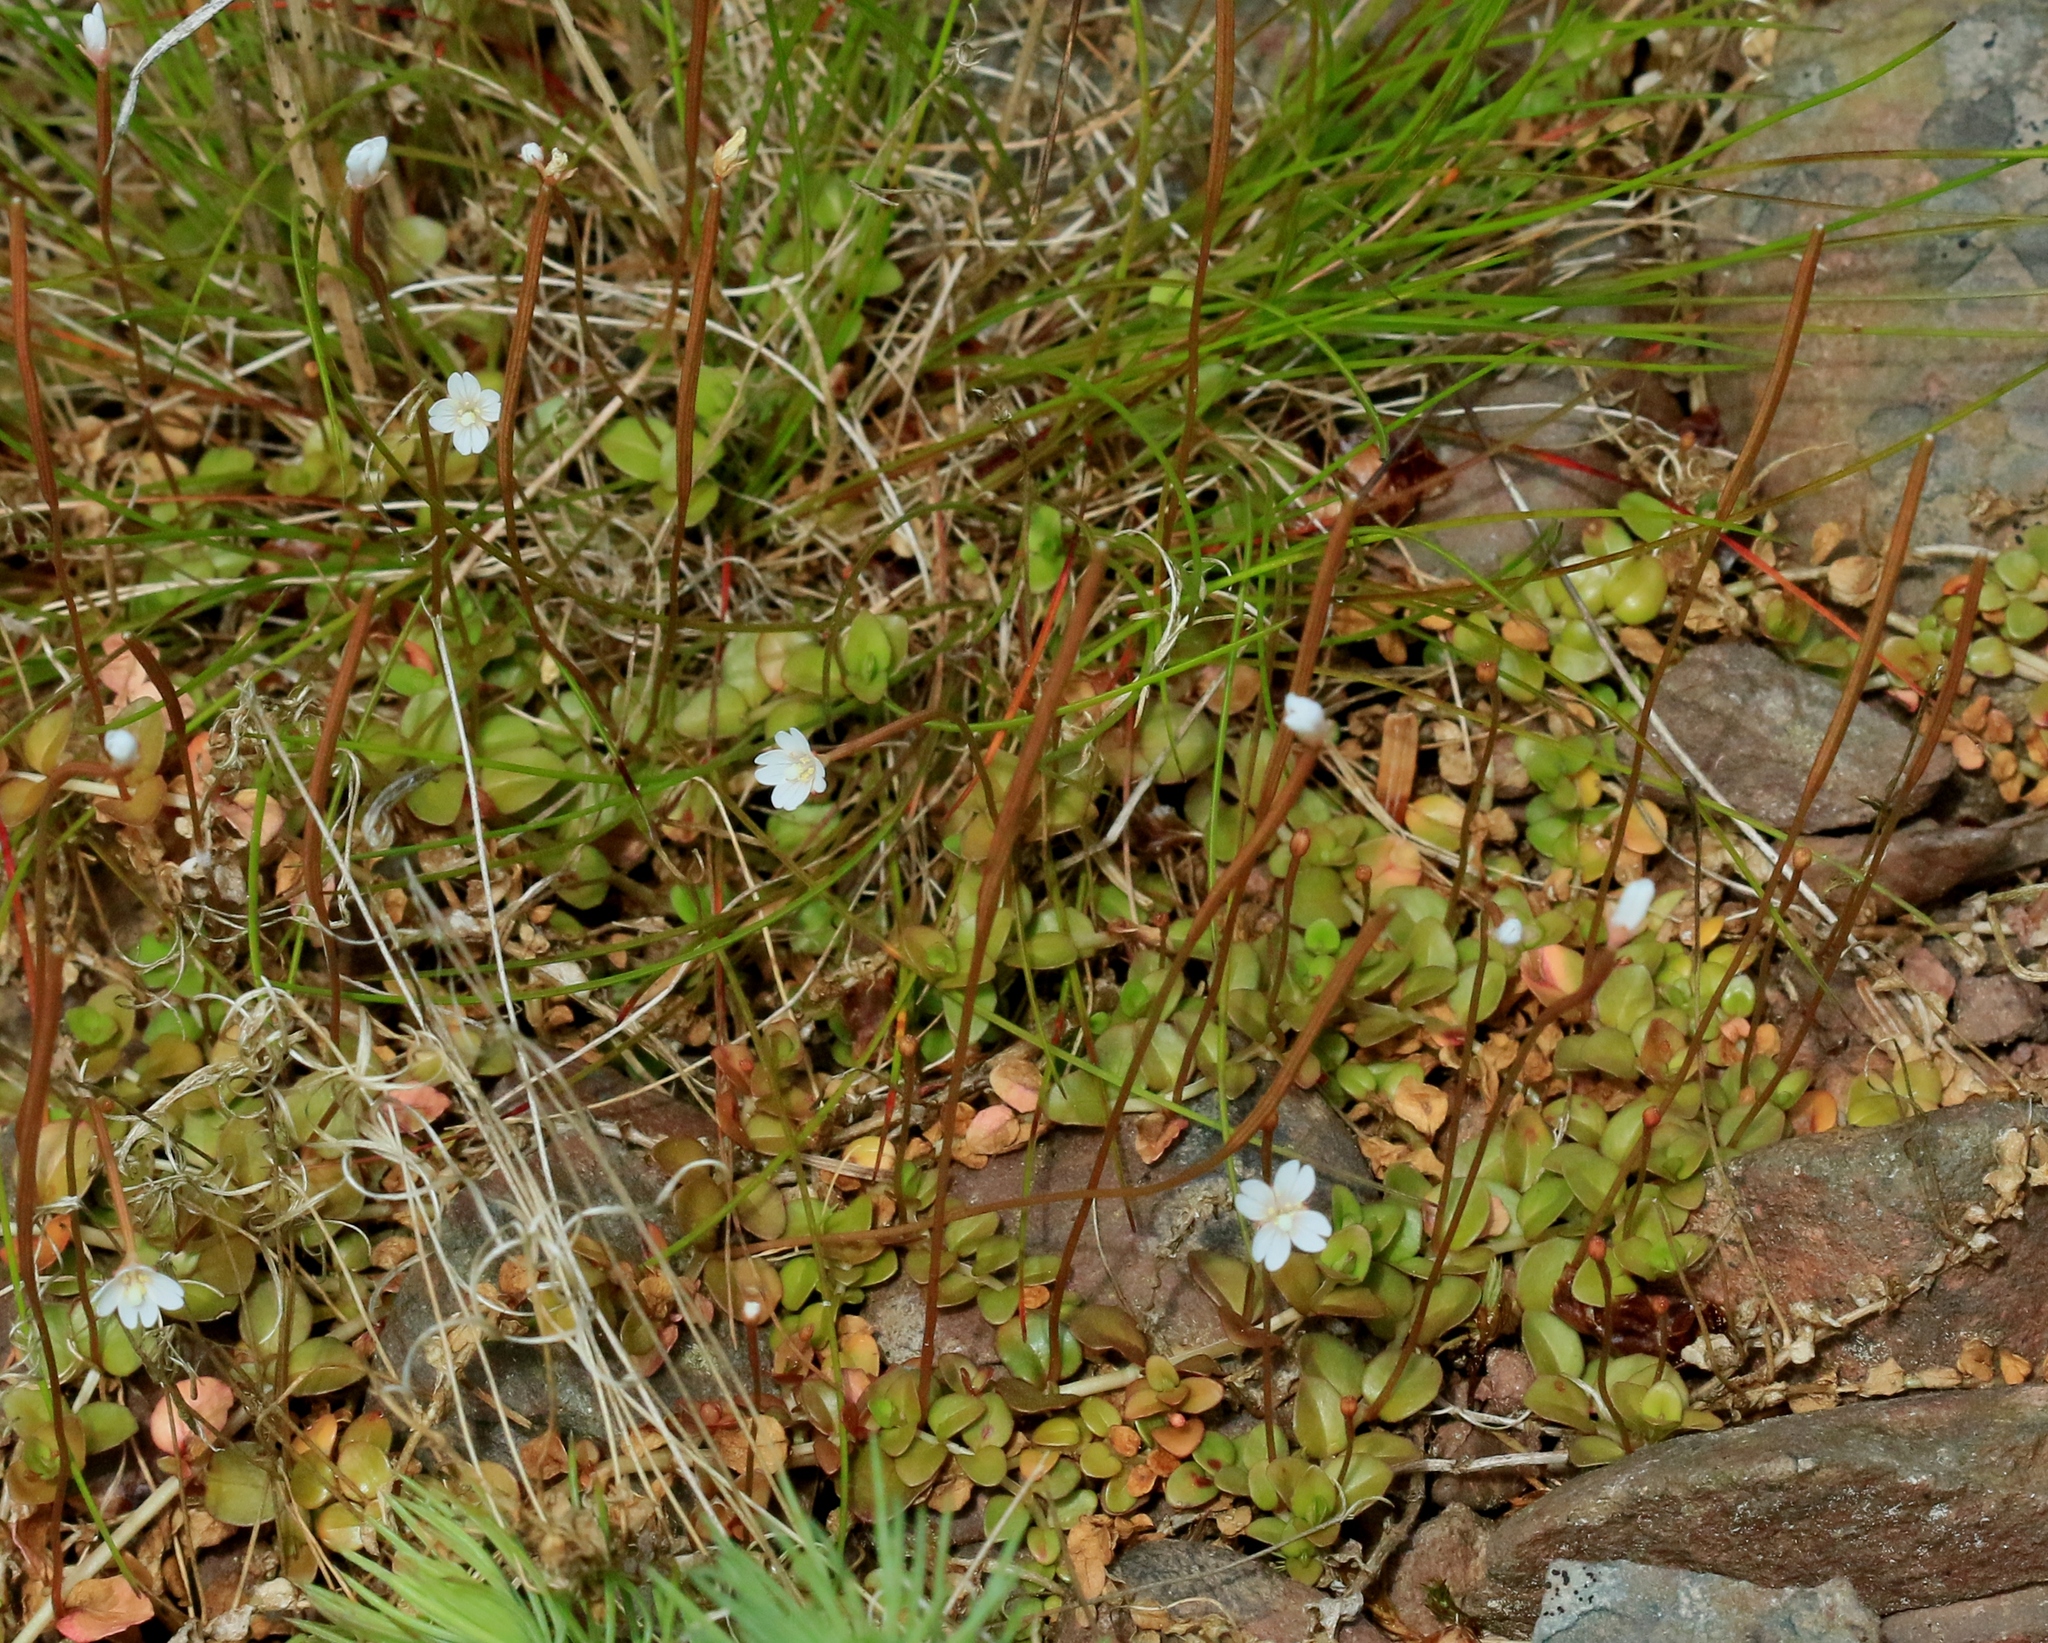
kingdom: Plantae
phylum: Tracheophyta
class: Magnoliopsida
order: Myrtales
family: Onagraceae
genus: Epilobium
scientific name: Epilobium brunnescens
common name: New zealand willowherb
